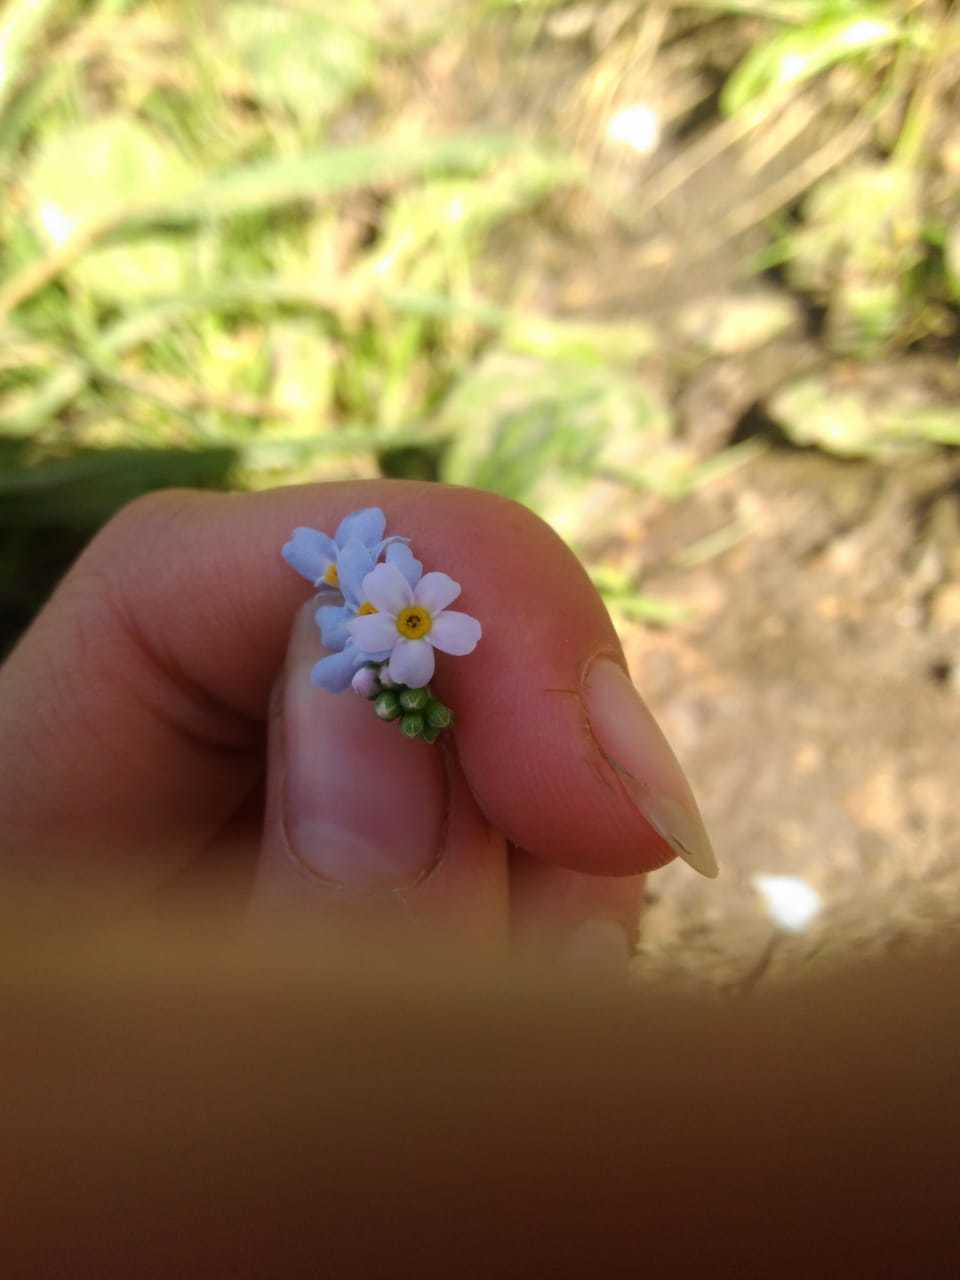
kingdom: Plantae
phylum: Tracheophyta
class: Magnoliopsida
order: Boraginales
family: Boraginaceae
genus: Myosotis
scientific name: Myosotis scorpioides
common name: Water forget-me-not
